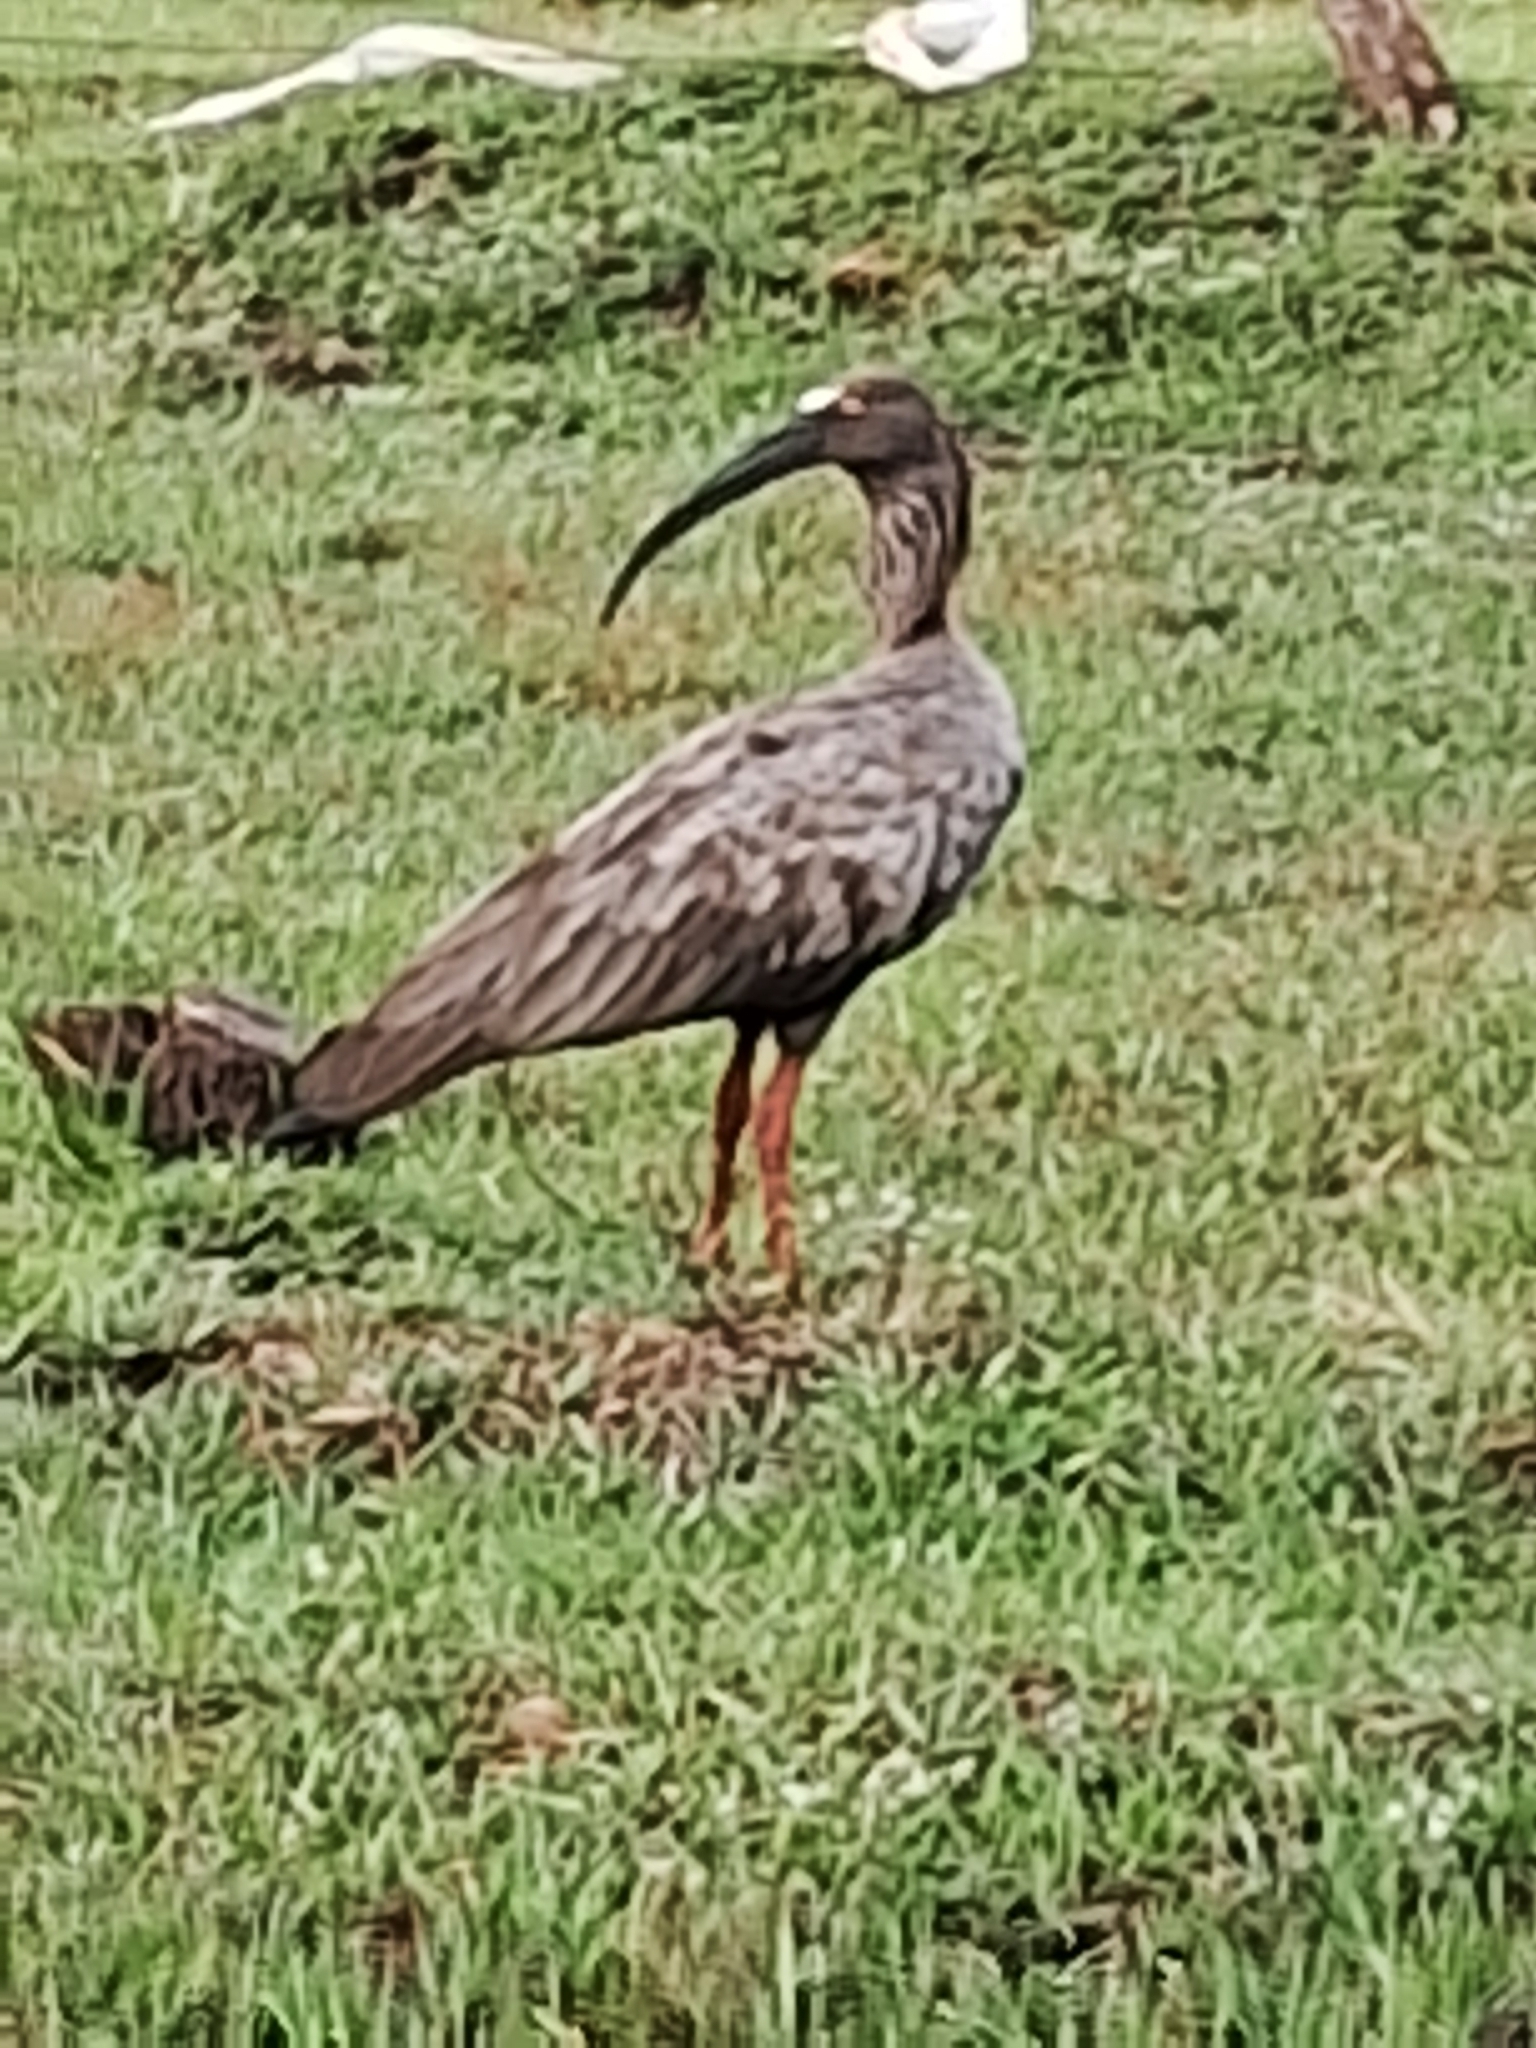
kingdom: Animalia
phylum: Chordata
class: Aves
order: Pelecaniformes
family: Threskiornithidae
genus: Theristicus
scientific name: Theristicus caerulescens
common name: Plumbeous ibis
